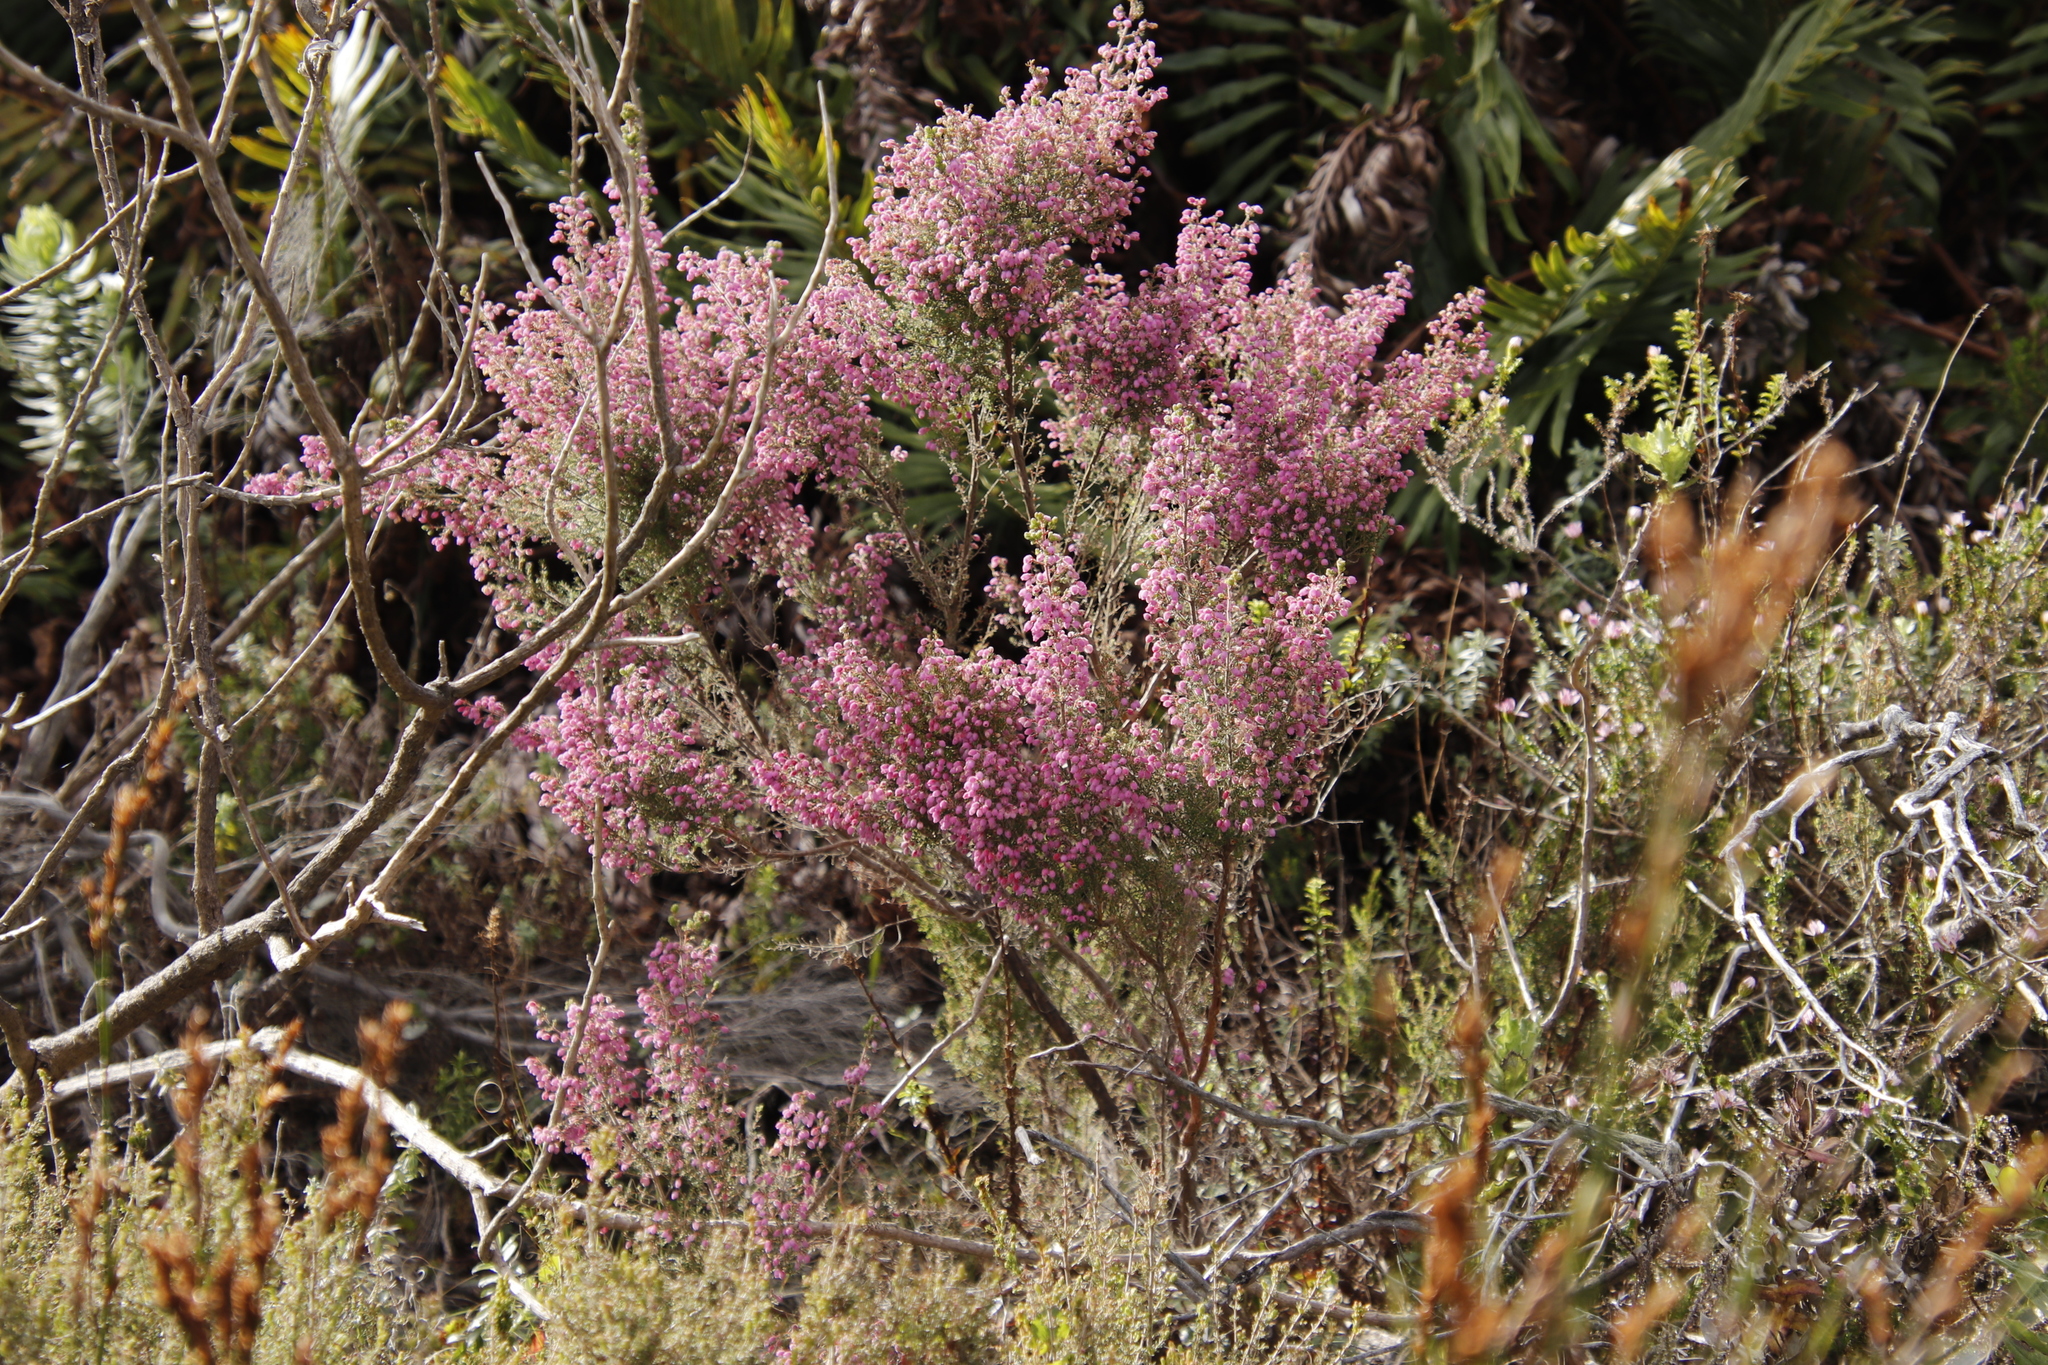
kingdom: Plantae
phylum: Tracheophyta
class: Magnoliopsida
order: Ericales
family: Ericaceae
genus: Erica
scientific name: Erica hirtiflora
